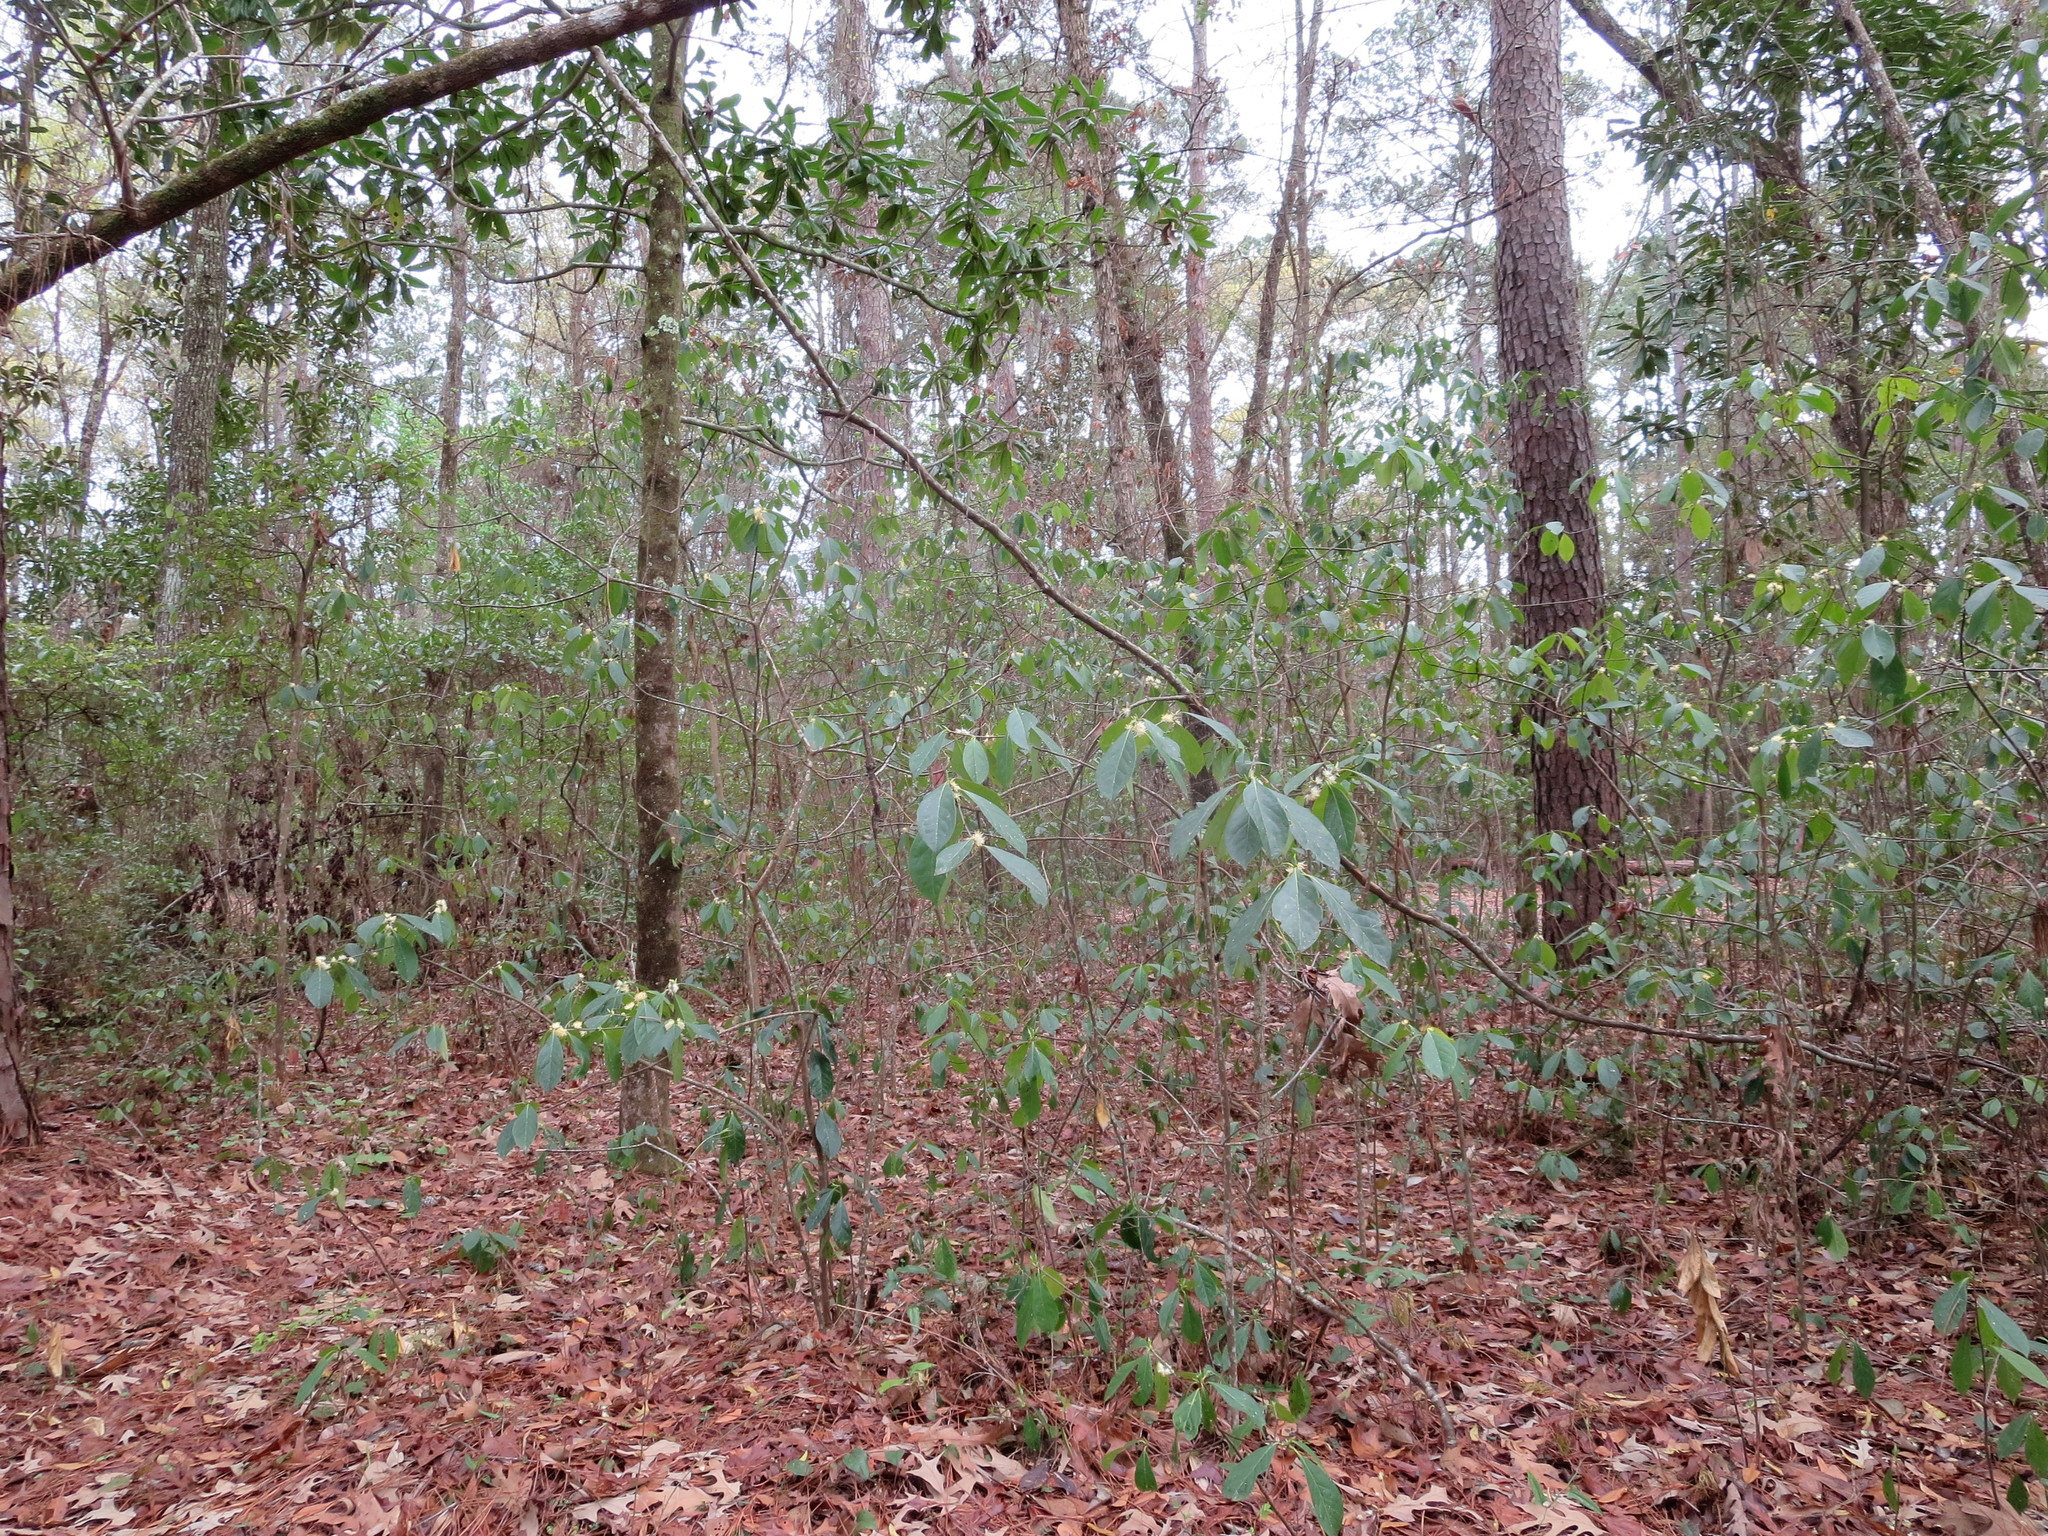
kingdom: Plantae
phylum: Tracheophyta
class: Magnoliopsida
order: Ericales
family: Symplocaceae
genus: Symplocos
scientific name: Symplocos tinctoria
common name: Horse-sugar
